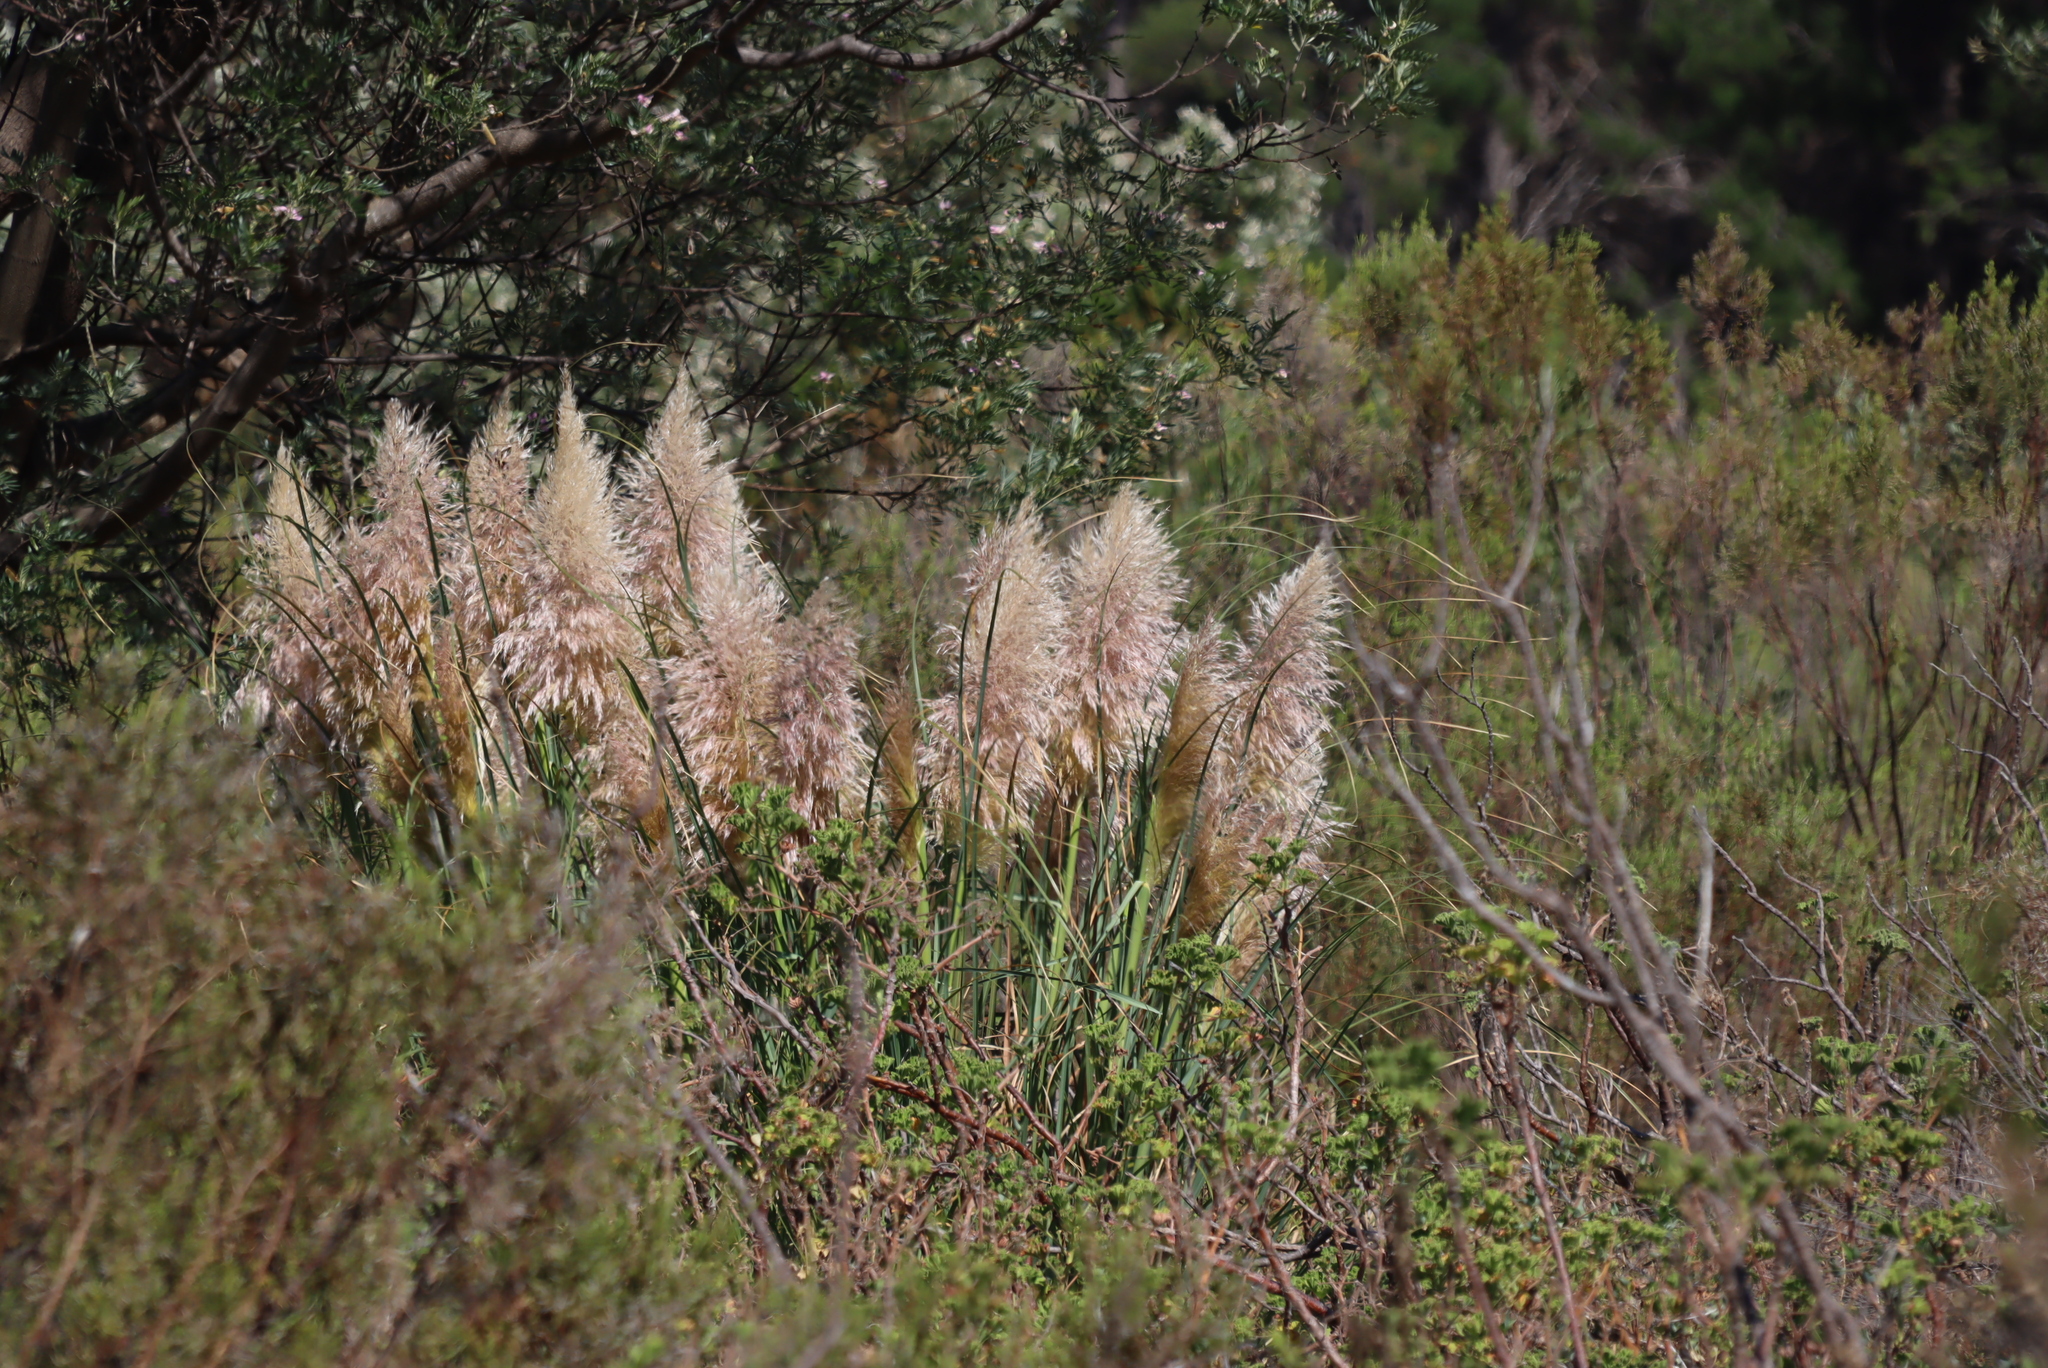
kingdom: Plantae
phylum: Tracheophyta
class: Liliopsida
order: Poales
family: Poaceae
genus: Cortaderia
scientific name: Cortaderia selloana
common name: Uruguayan pampas grass
